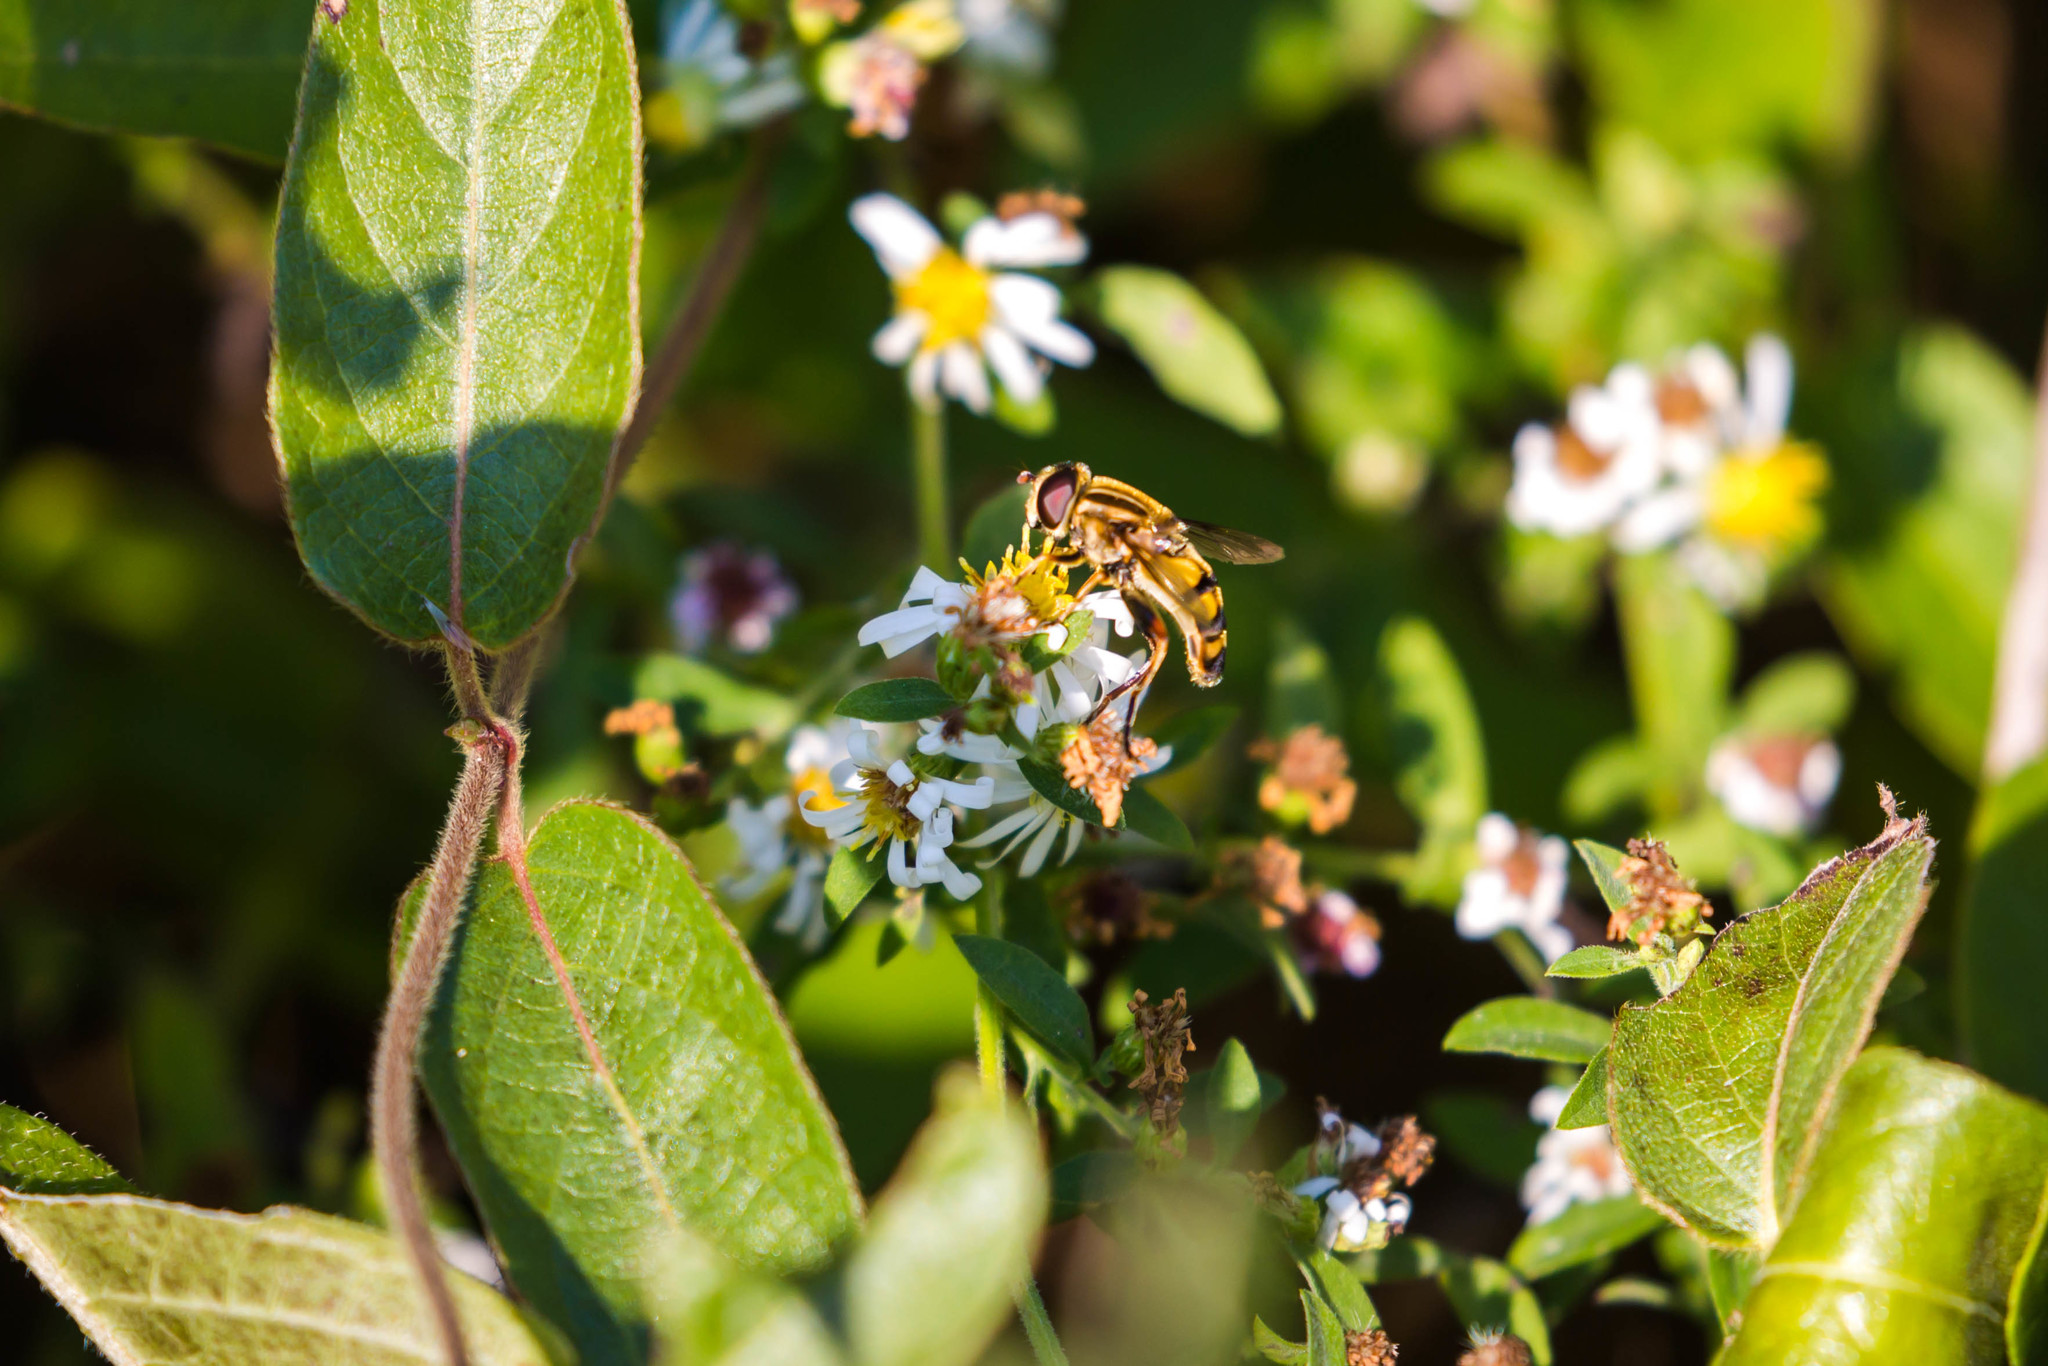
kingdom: Animalia
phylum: Arthropoda
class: Insecta
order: Diptera
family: Syrphidae
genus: Helophilus
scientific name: Helophilus fasciatus
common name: Narrow-headed marsh fly
